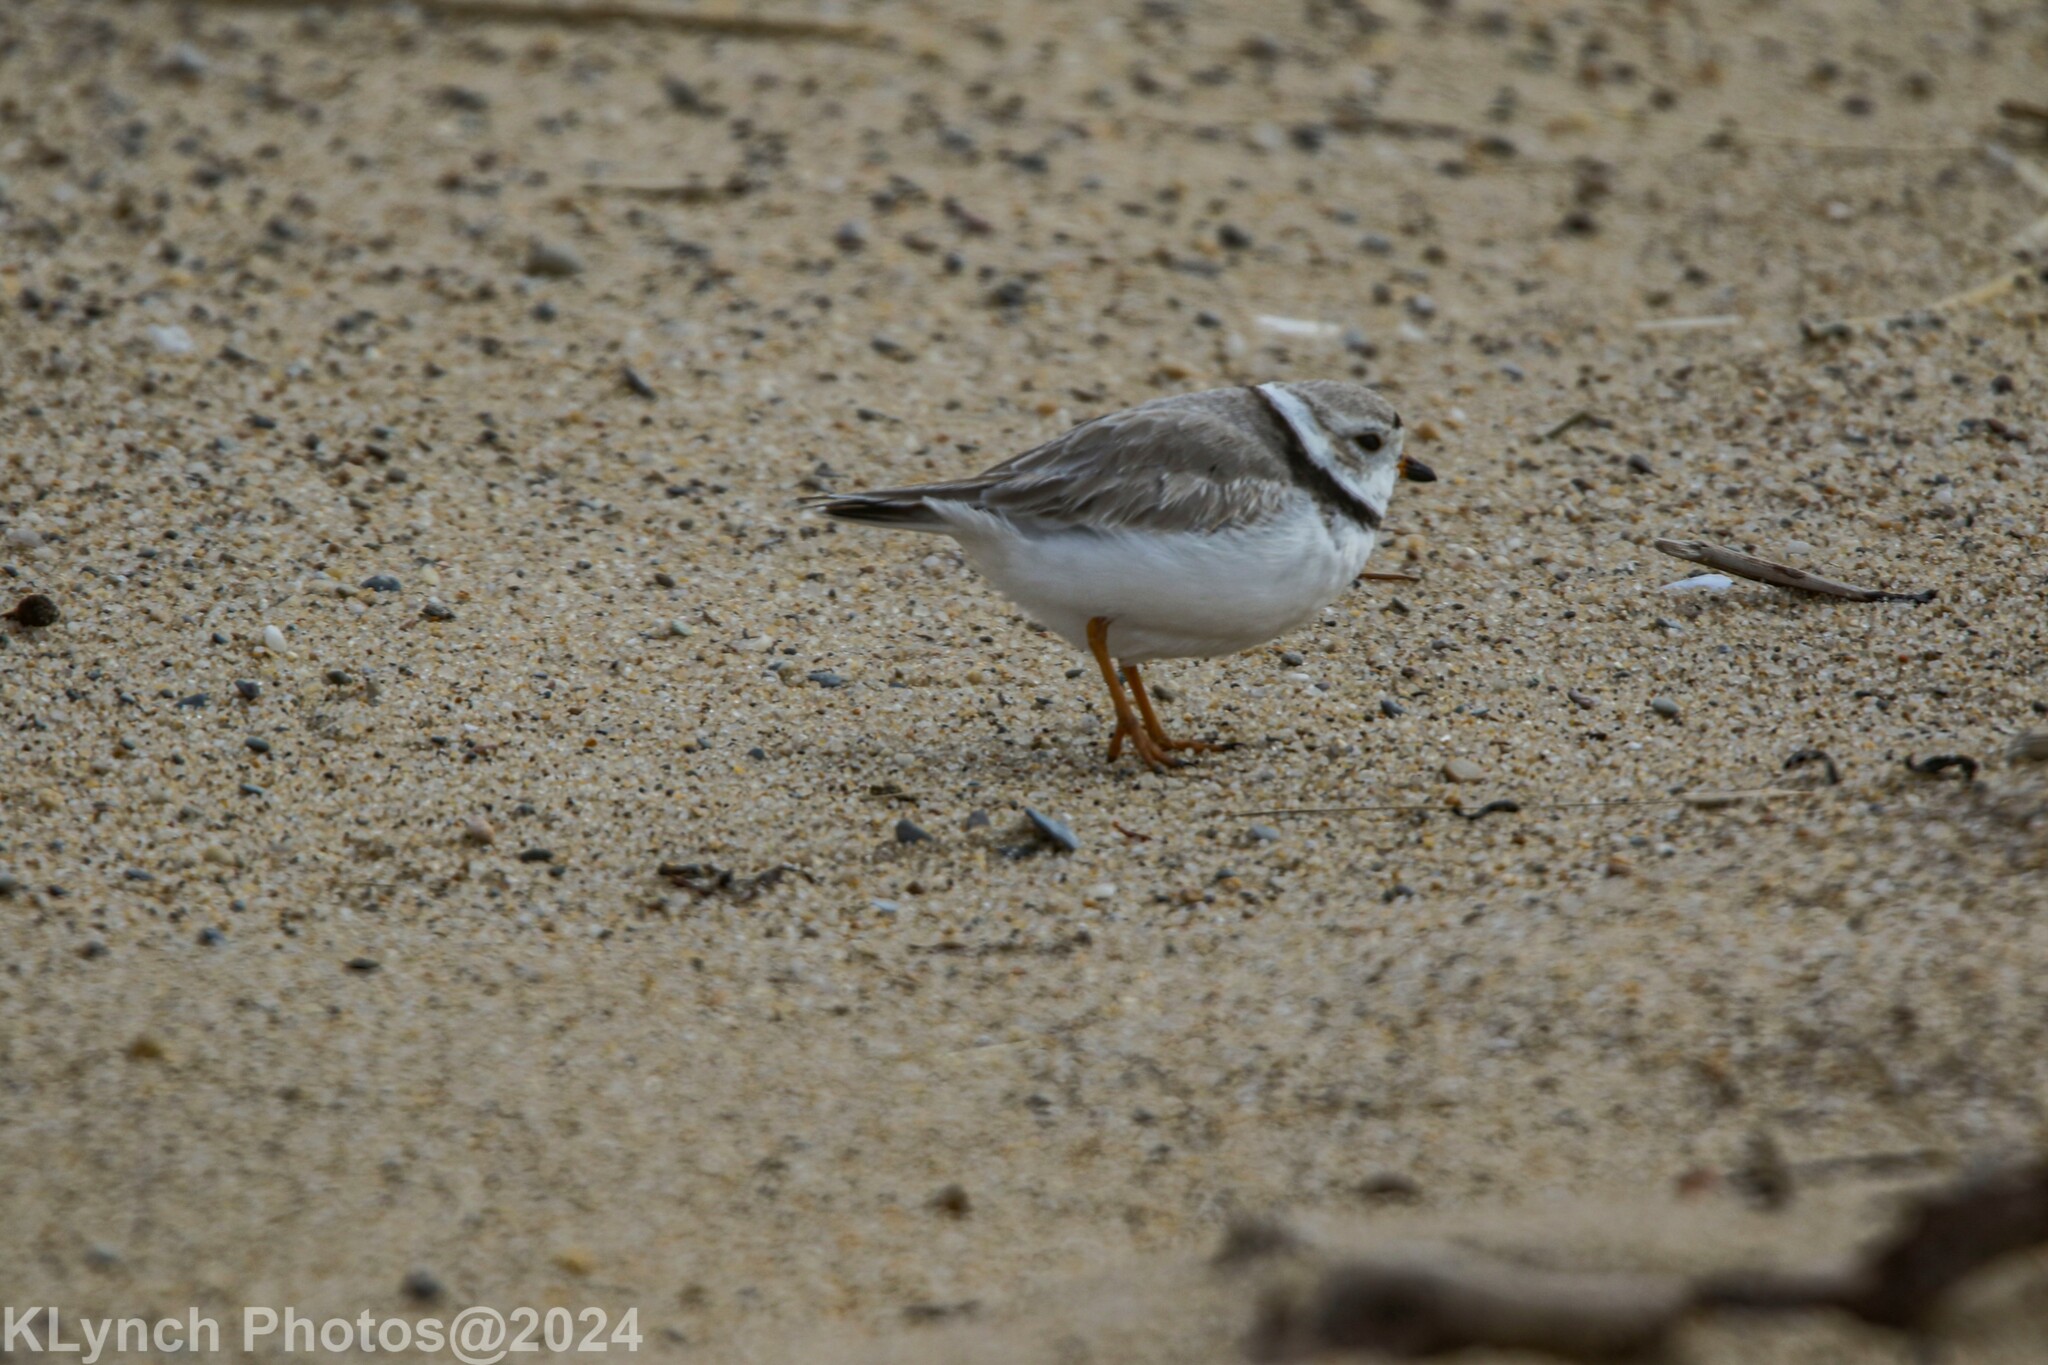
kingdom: Animalia
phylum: Chordata
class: Aves
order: Charadriiformes
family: Charadriidae
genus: Charadrius
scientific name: Charadrius melodus
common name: Piping plover
